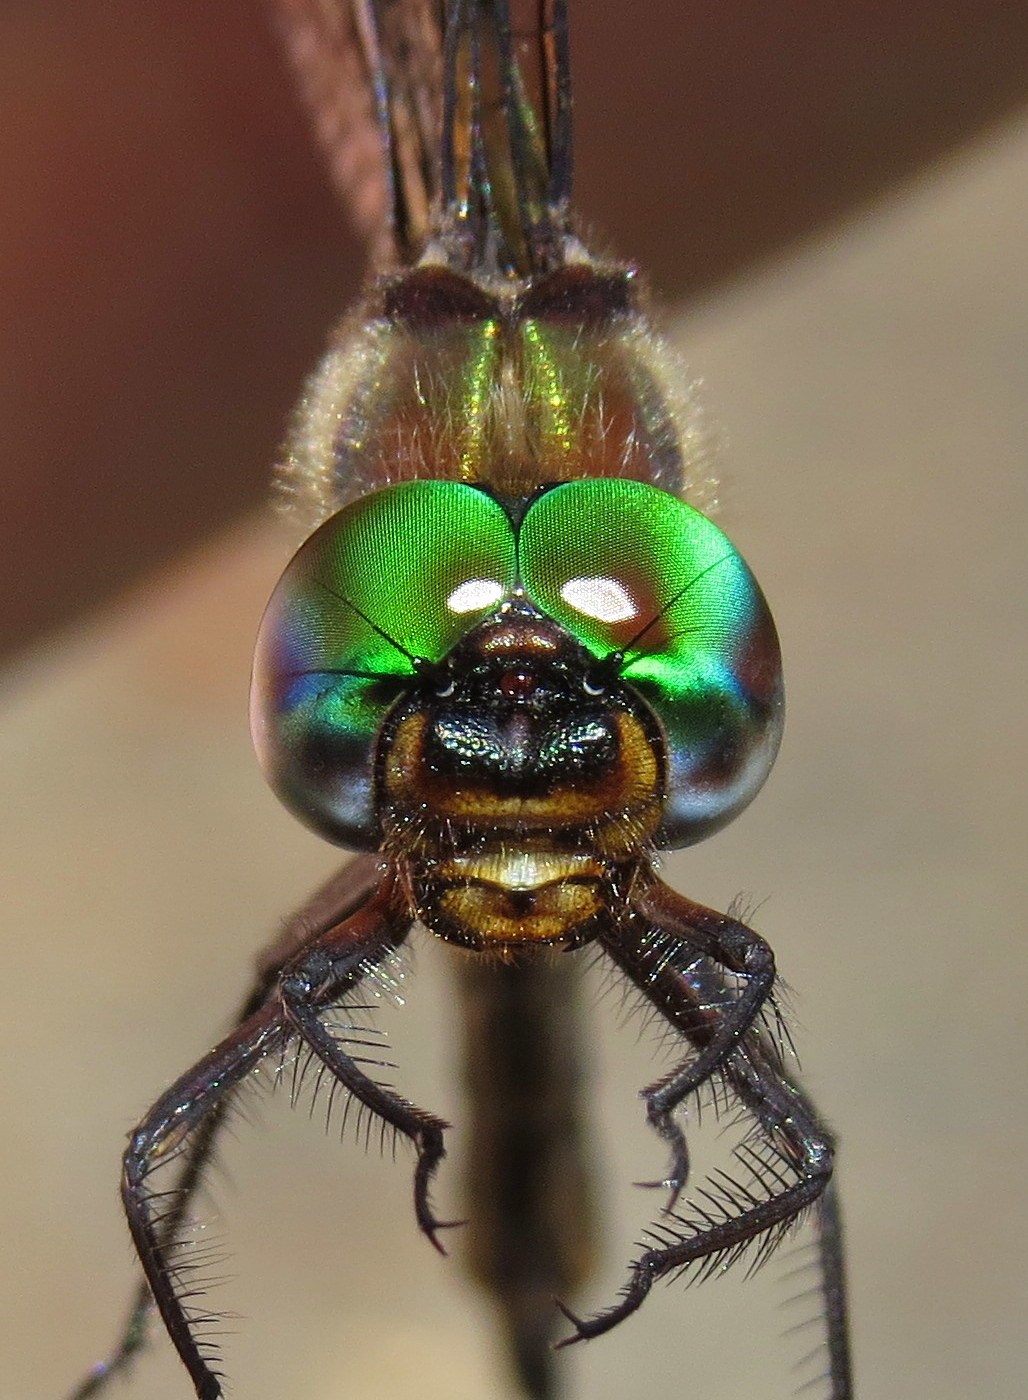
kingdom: Animalia
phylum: Arthropoda
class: Insecta
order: Odonata
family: Corduliidae
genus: Somatochlora
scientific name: Somatochlora tenebrosa
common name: Clamp-tipped emerald
